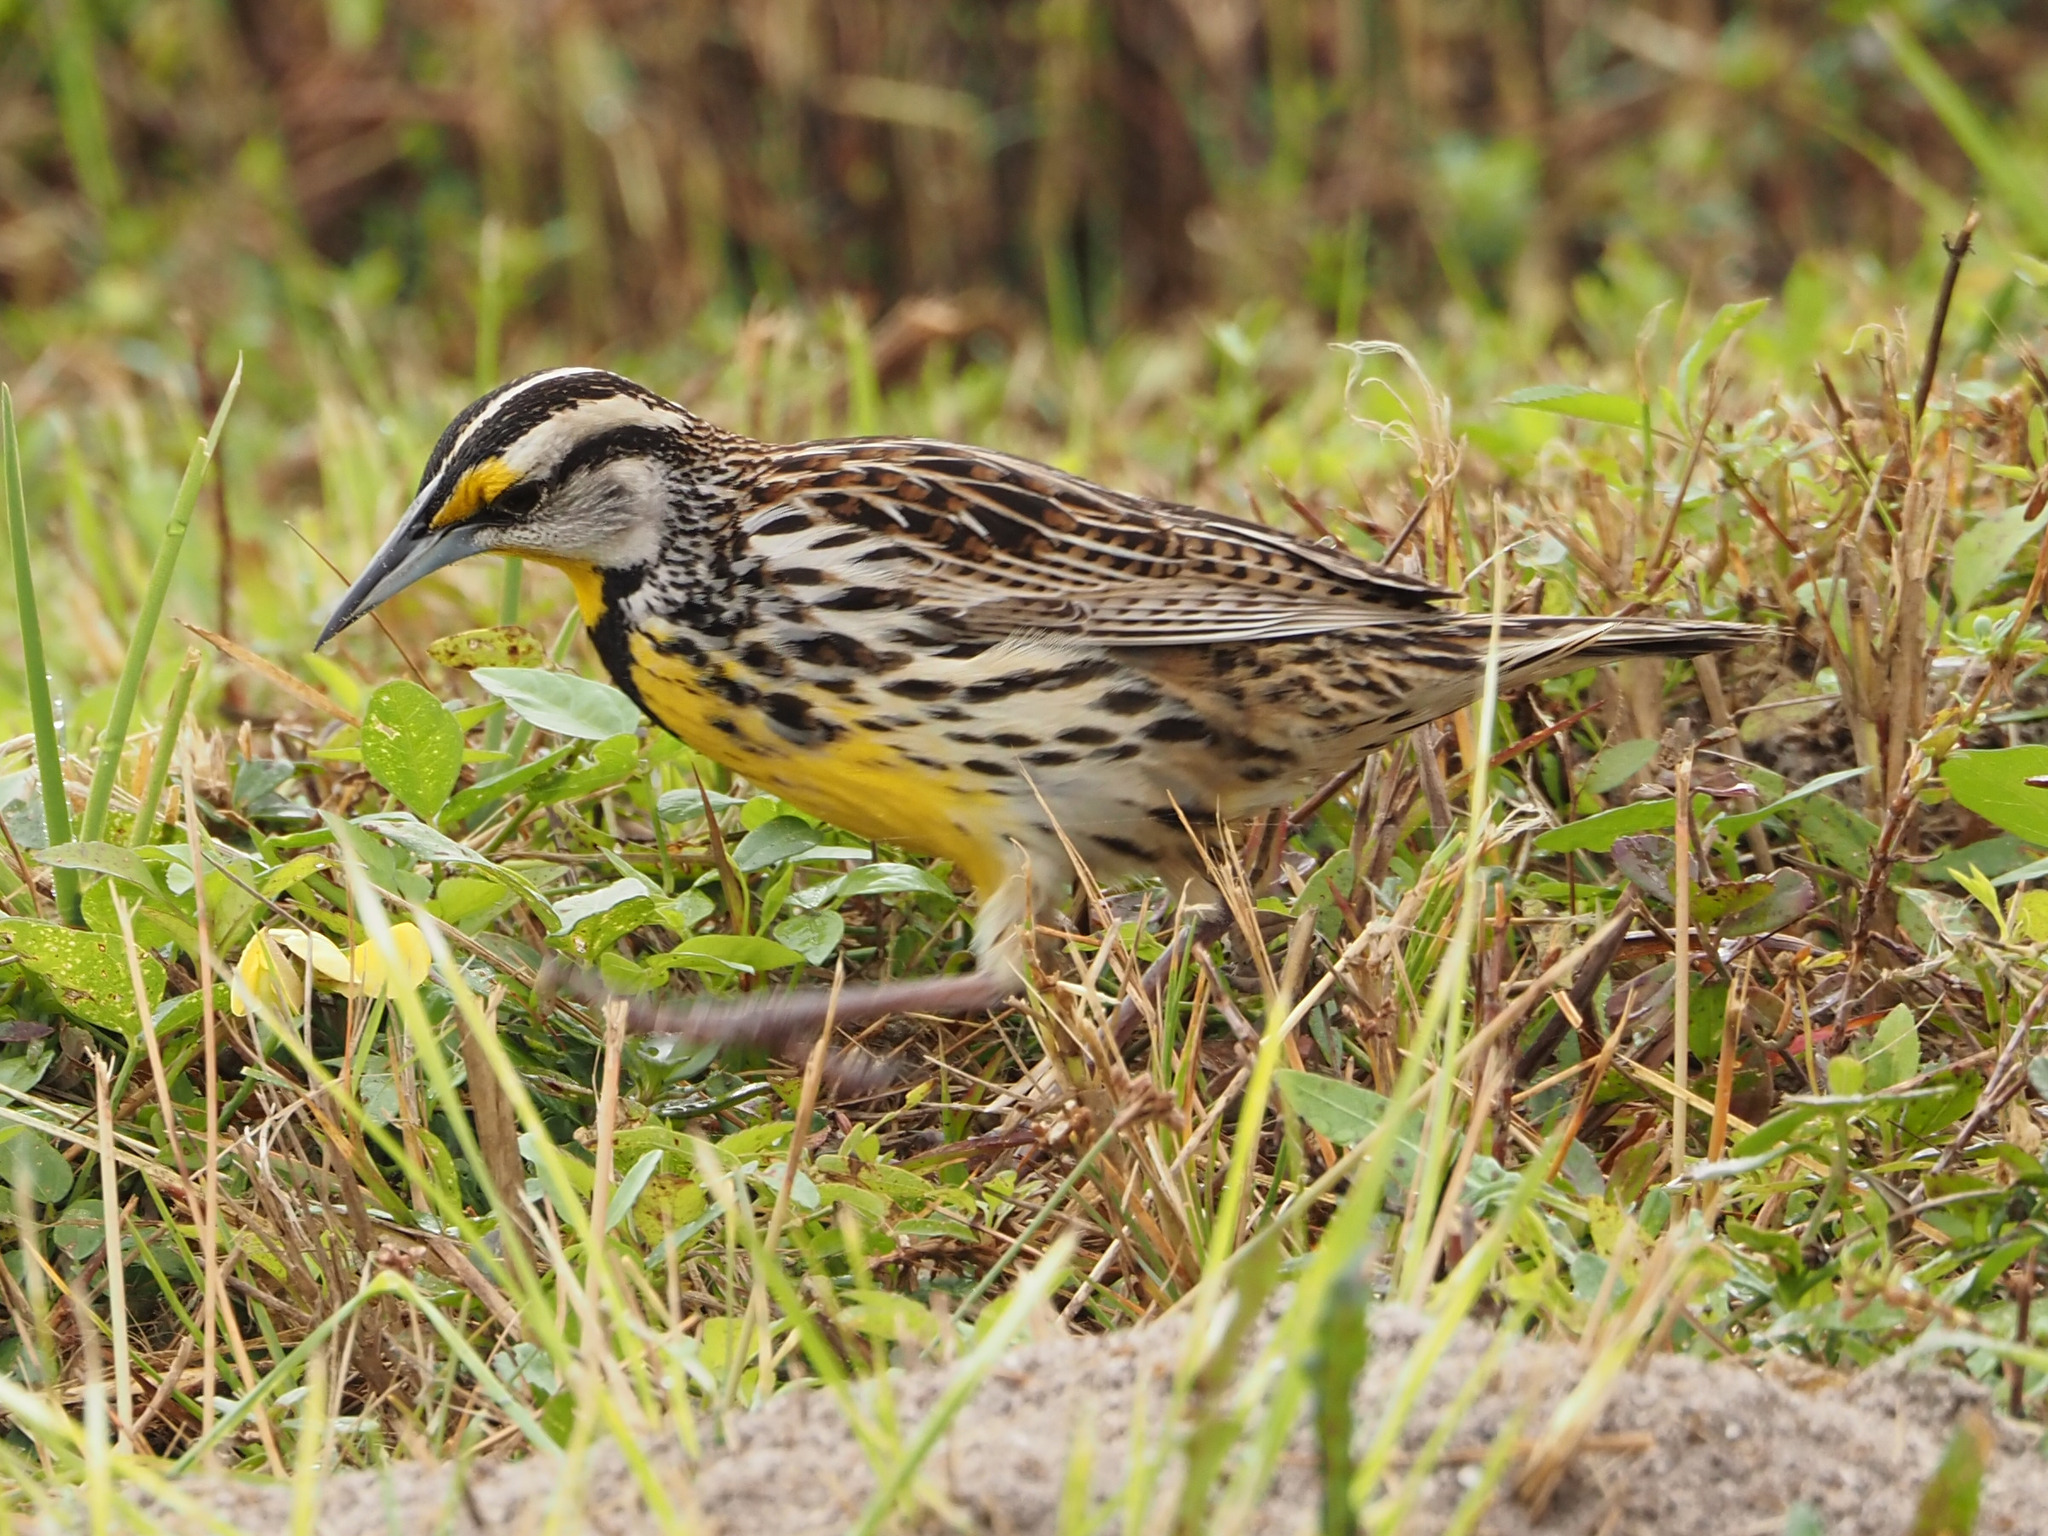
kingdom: Animalia
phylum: Chordata
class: Aves
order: Passeriformes
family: Icteridae
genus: Sturnella
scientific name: Sturnella magna
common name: Eastern meadowlark
